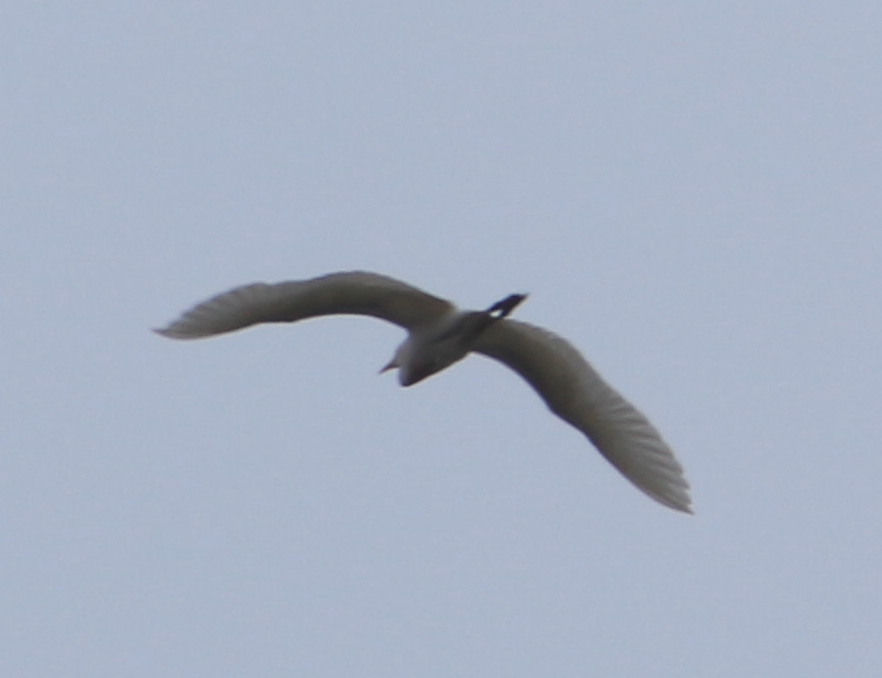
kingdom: Animalia
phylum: Chordata
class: Aves
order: Pelecaniformes
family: Ardeidae
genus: Ardea
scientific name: Ardea alba
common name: Great egret
